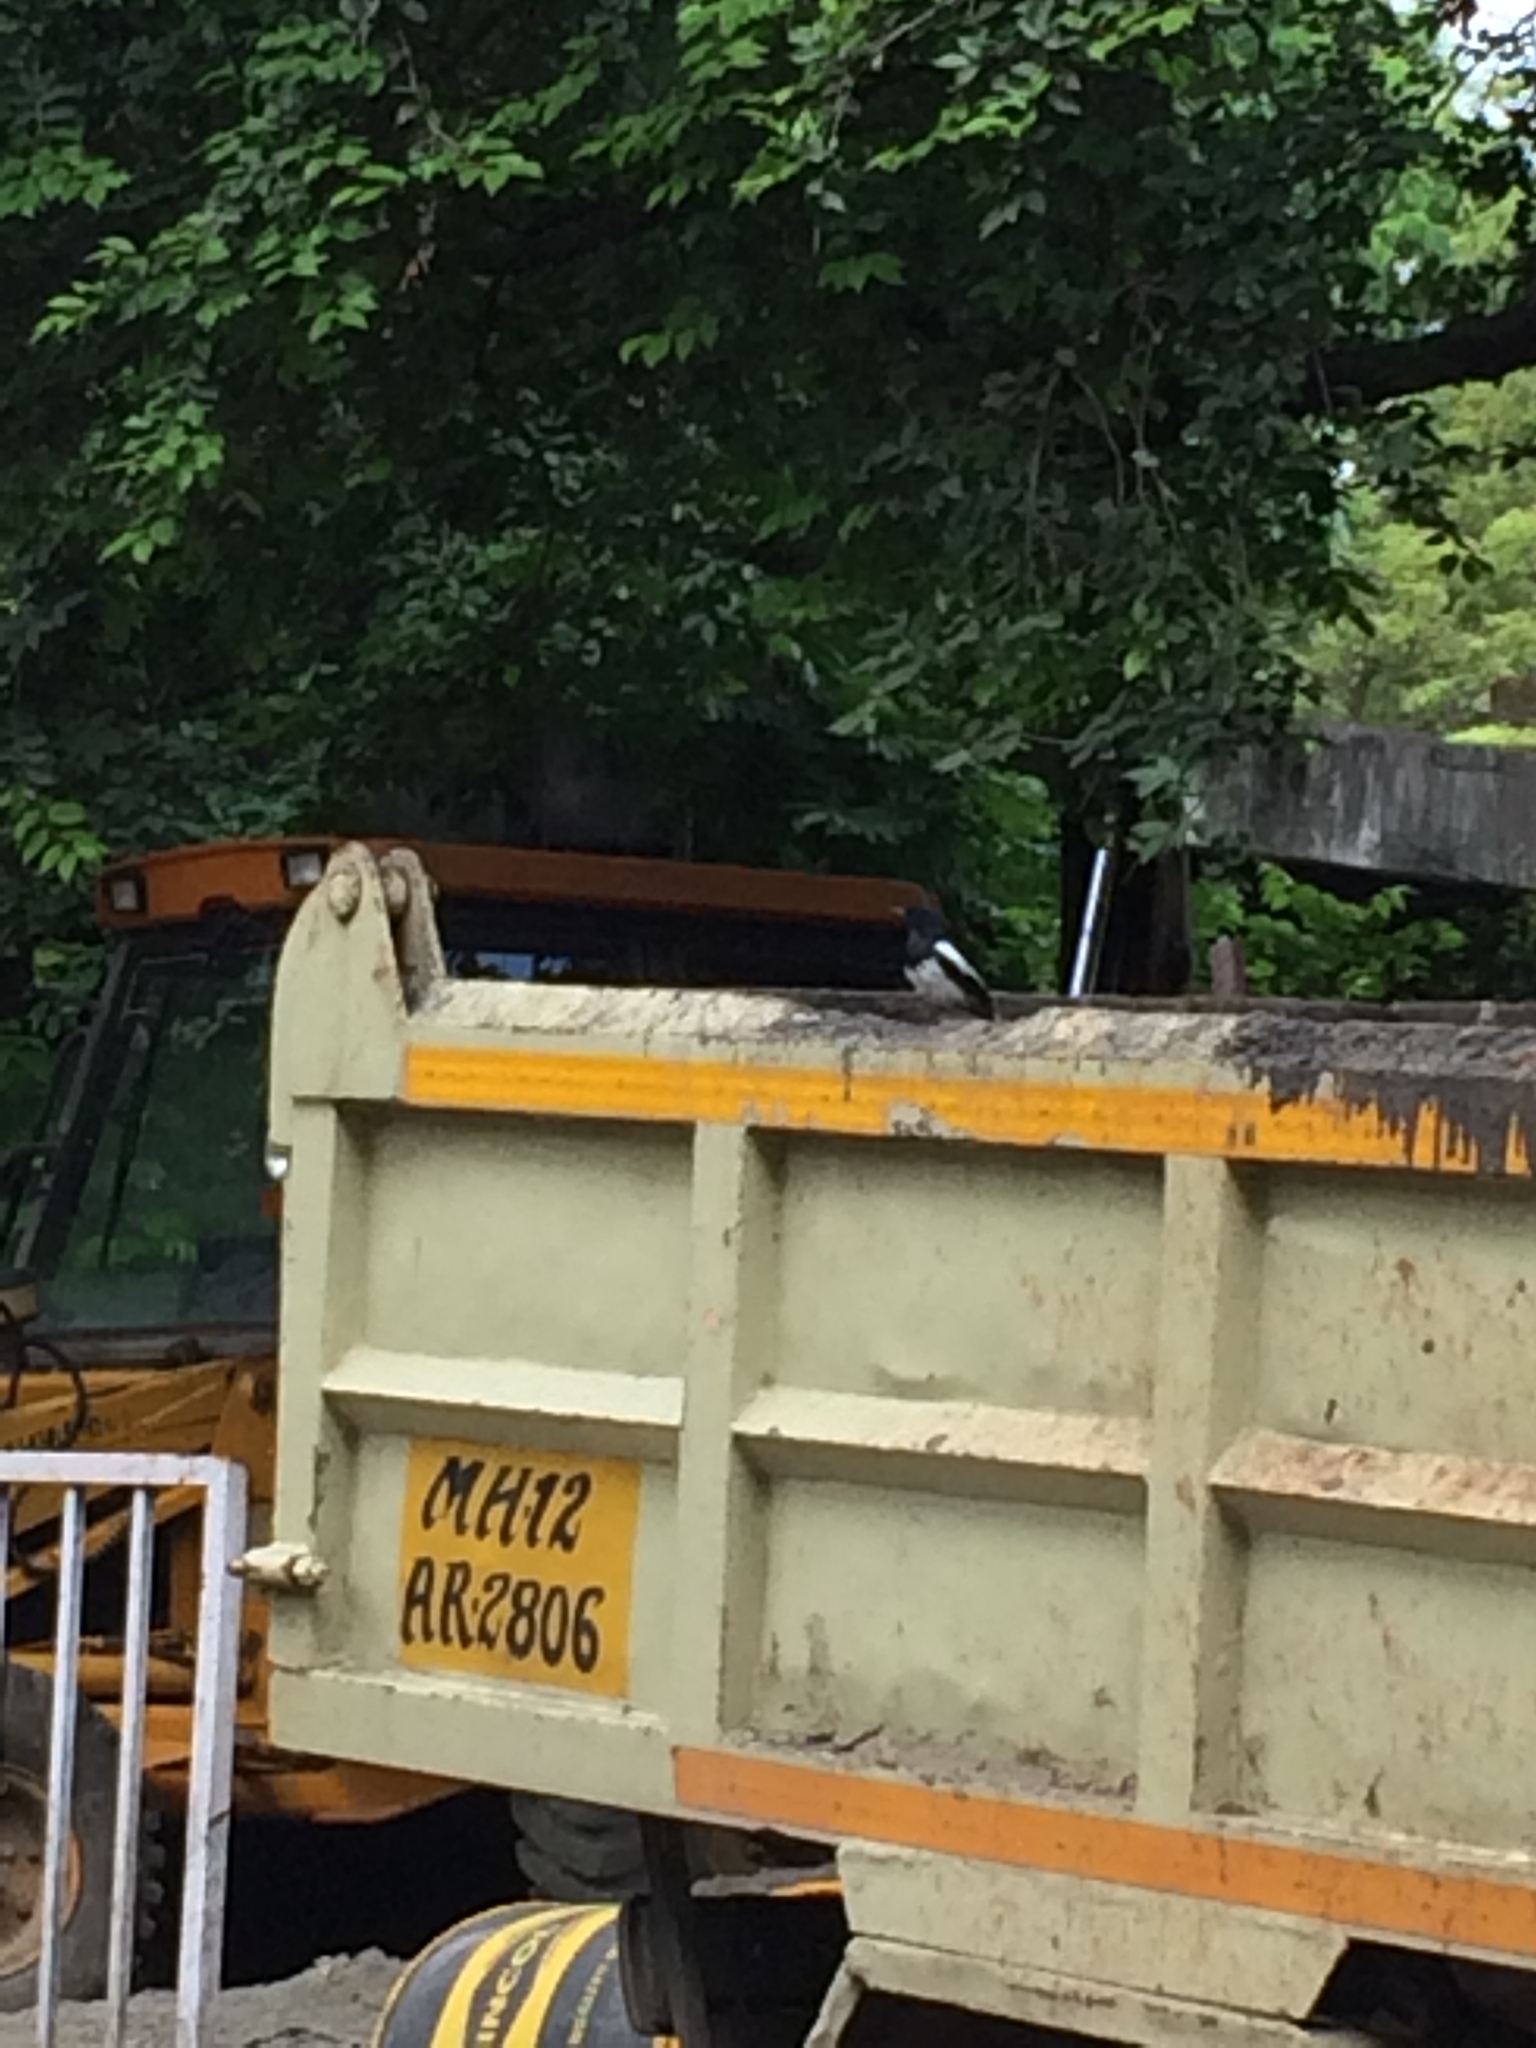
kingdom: Animalia
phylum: Chordata
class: Aves
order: Passeriformes
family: Muscicapidae
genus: Copsychus
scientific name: Copsychus saularis
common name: Oriental magpie-robin
